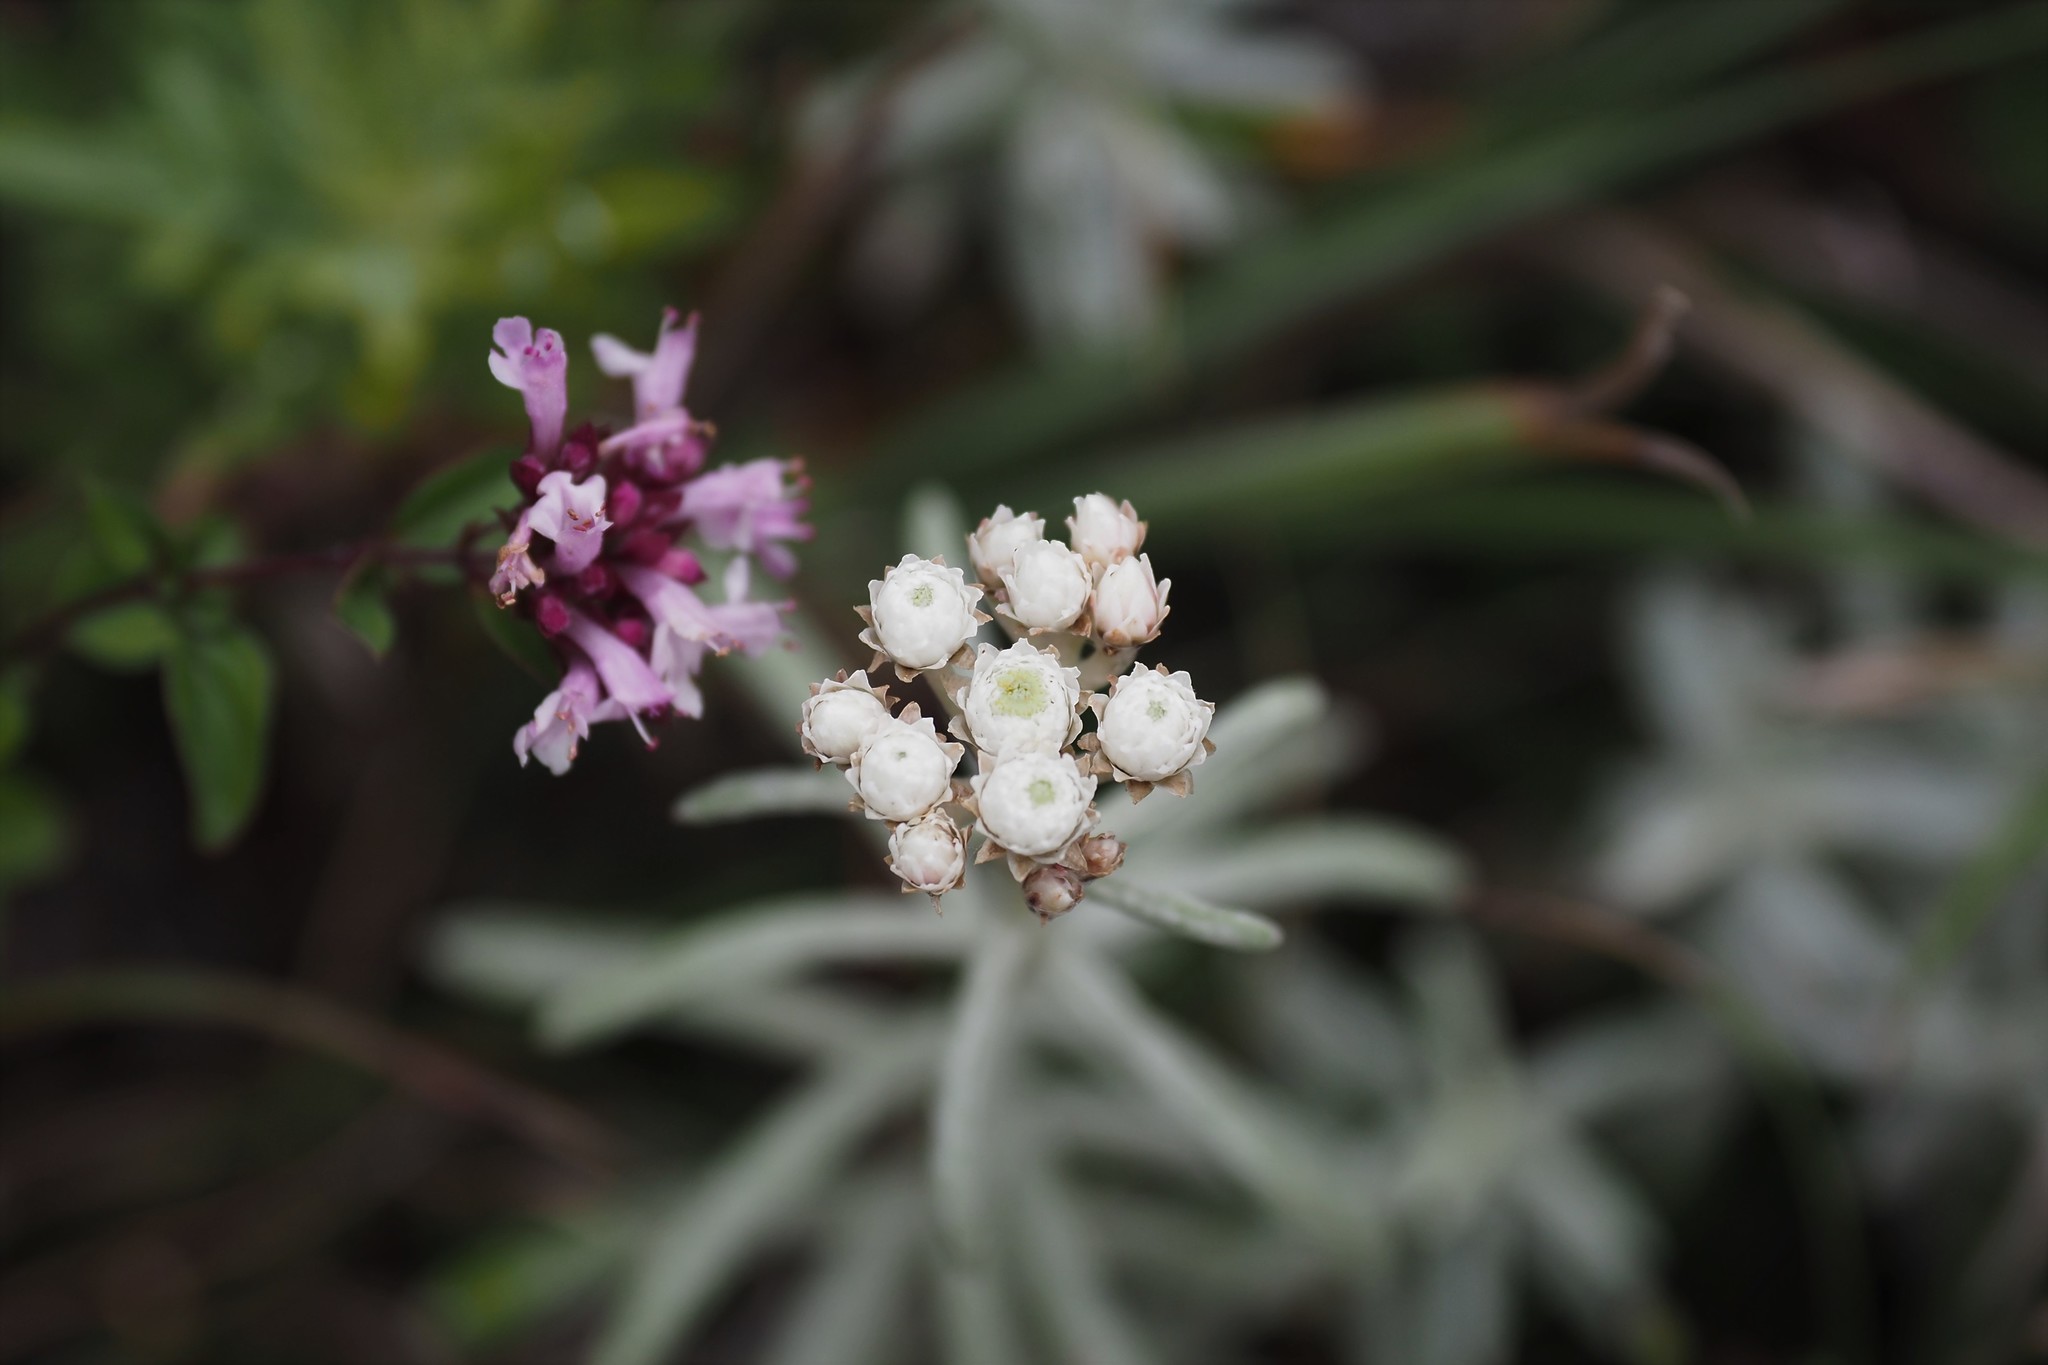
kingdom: Plantae
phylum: Tracheophyta
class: Magnoliopsida
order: Asterales
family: Asteraceae
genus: Anaphalis
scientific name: Anaphalis morrisonicola
